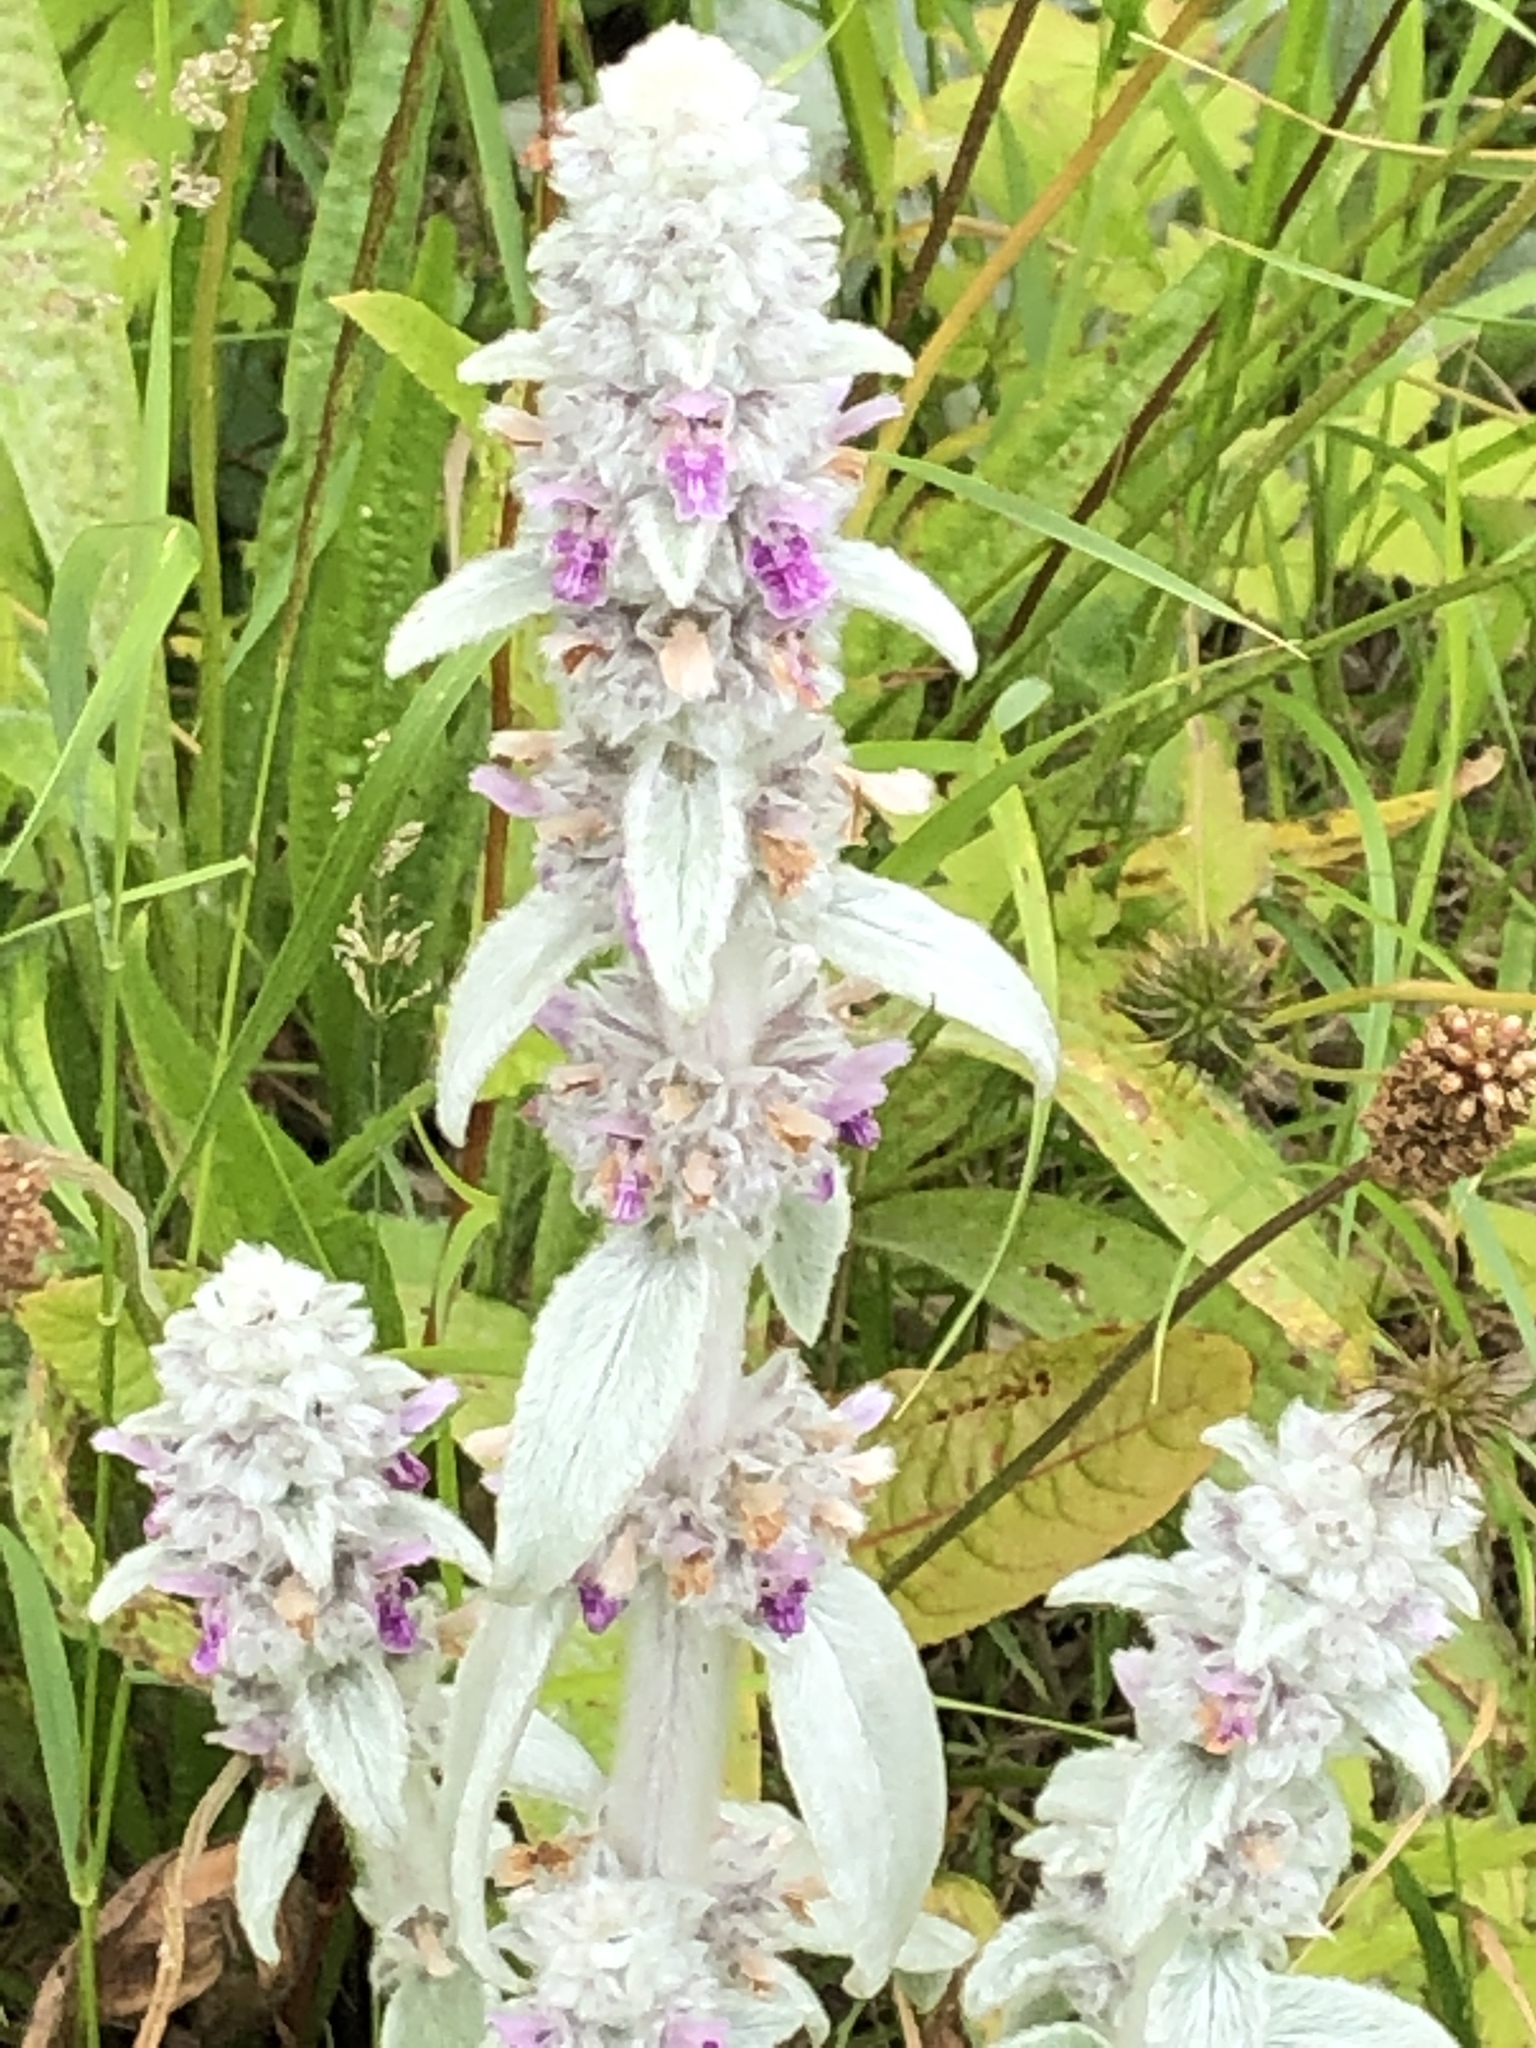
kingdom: Plantae
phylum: Tracheophyta
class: Magnoliopsida
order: Lamiales
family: Lamiaceae
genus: Stachys
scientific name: Stachys byzantina
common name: Lamb's-ear
